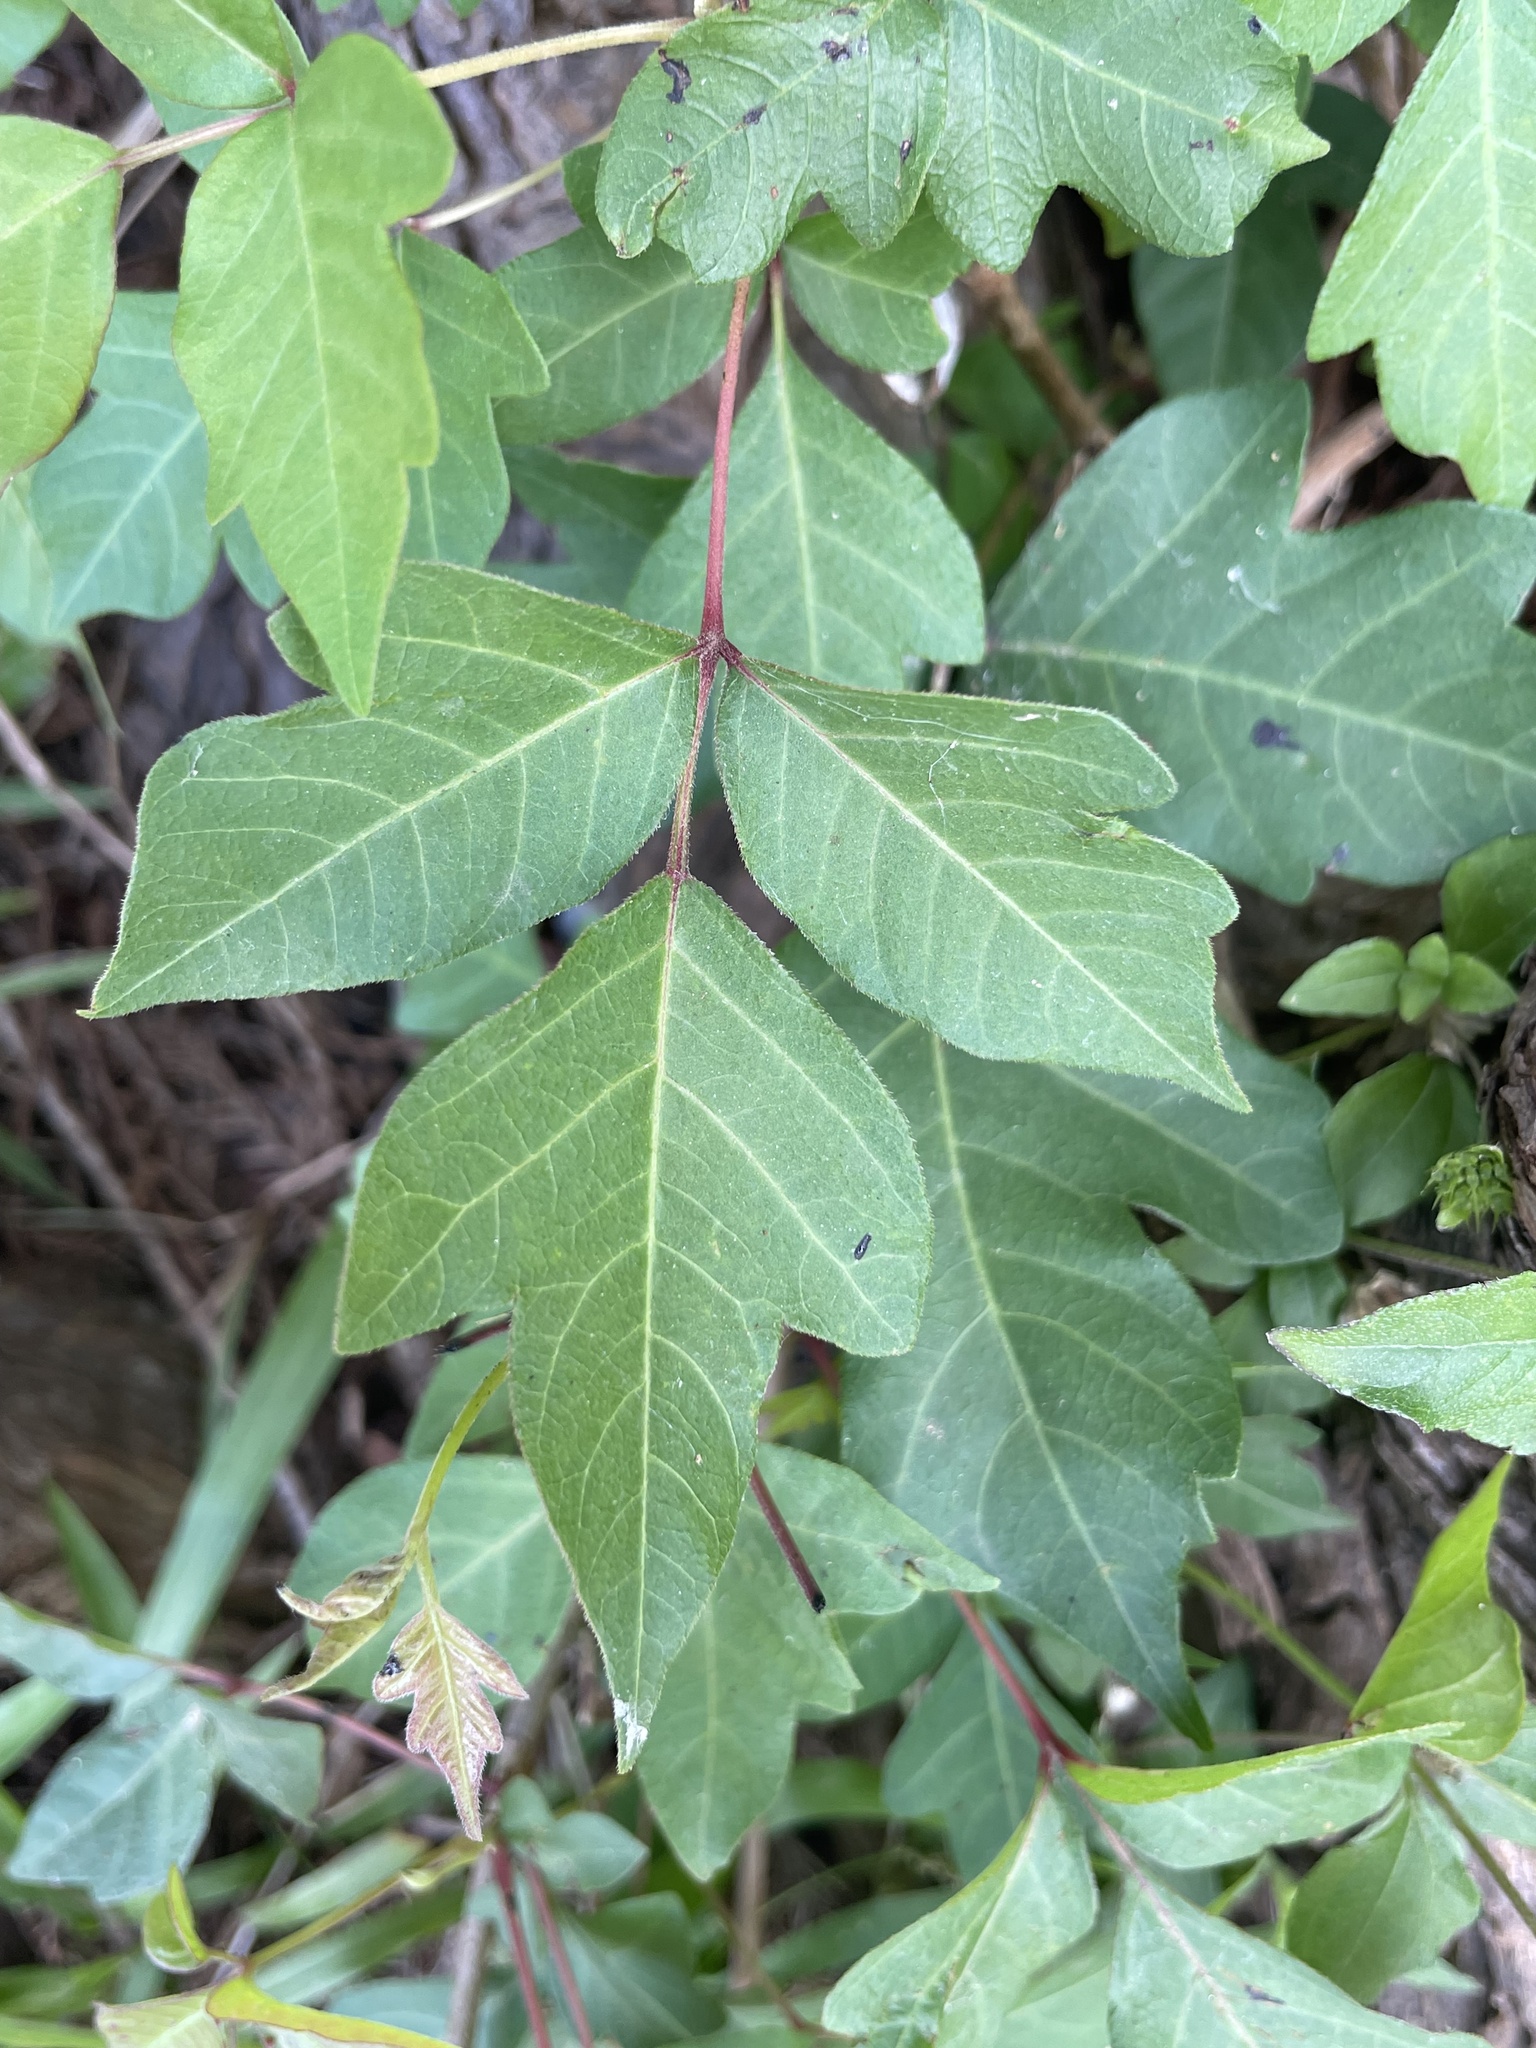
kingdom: Plantae
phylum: Tracheophyta
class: Magnoliopsida
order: Sapindales
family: Anacardiaceae
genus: Toxicodendron
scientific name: Toxicodendron radicans
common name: Poison ivy
